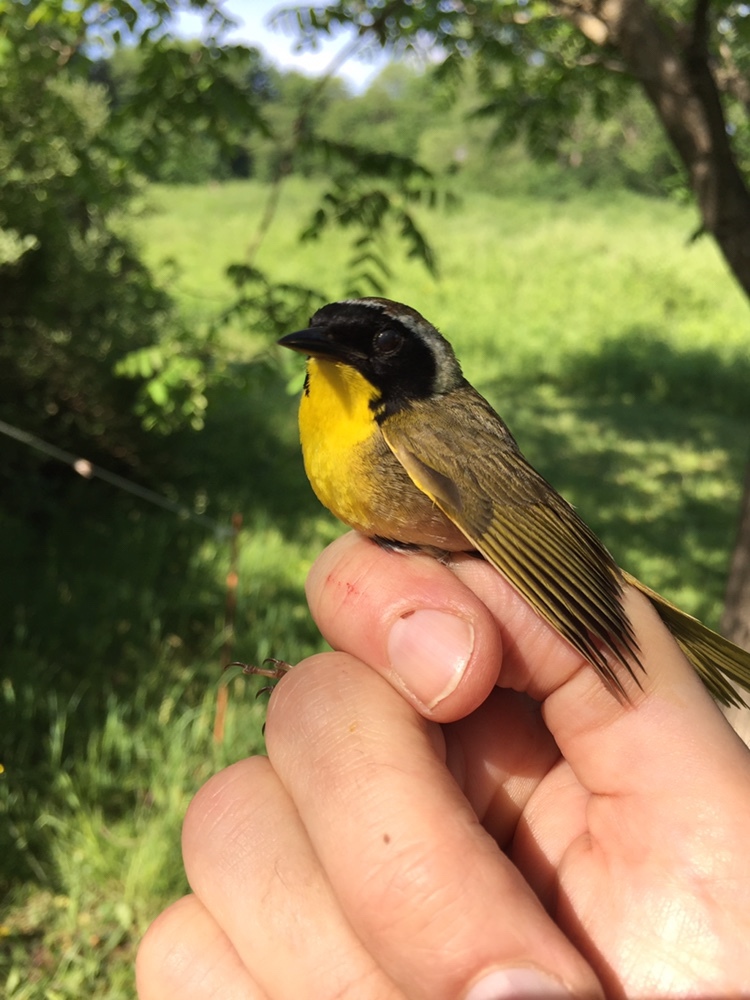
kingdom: Animalia
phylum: Chordata
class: Aves
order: Passeriformes
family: Parulidae
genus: Geothlypis
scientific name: Geothlypis trichas
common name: Common yellowthroat
